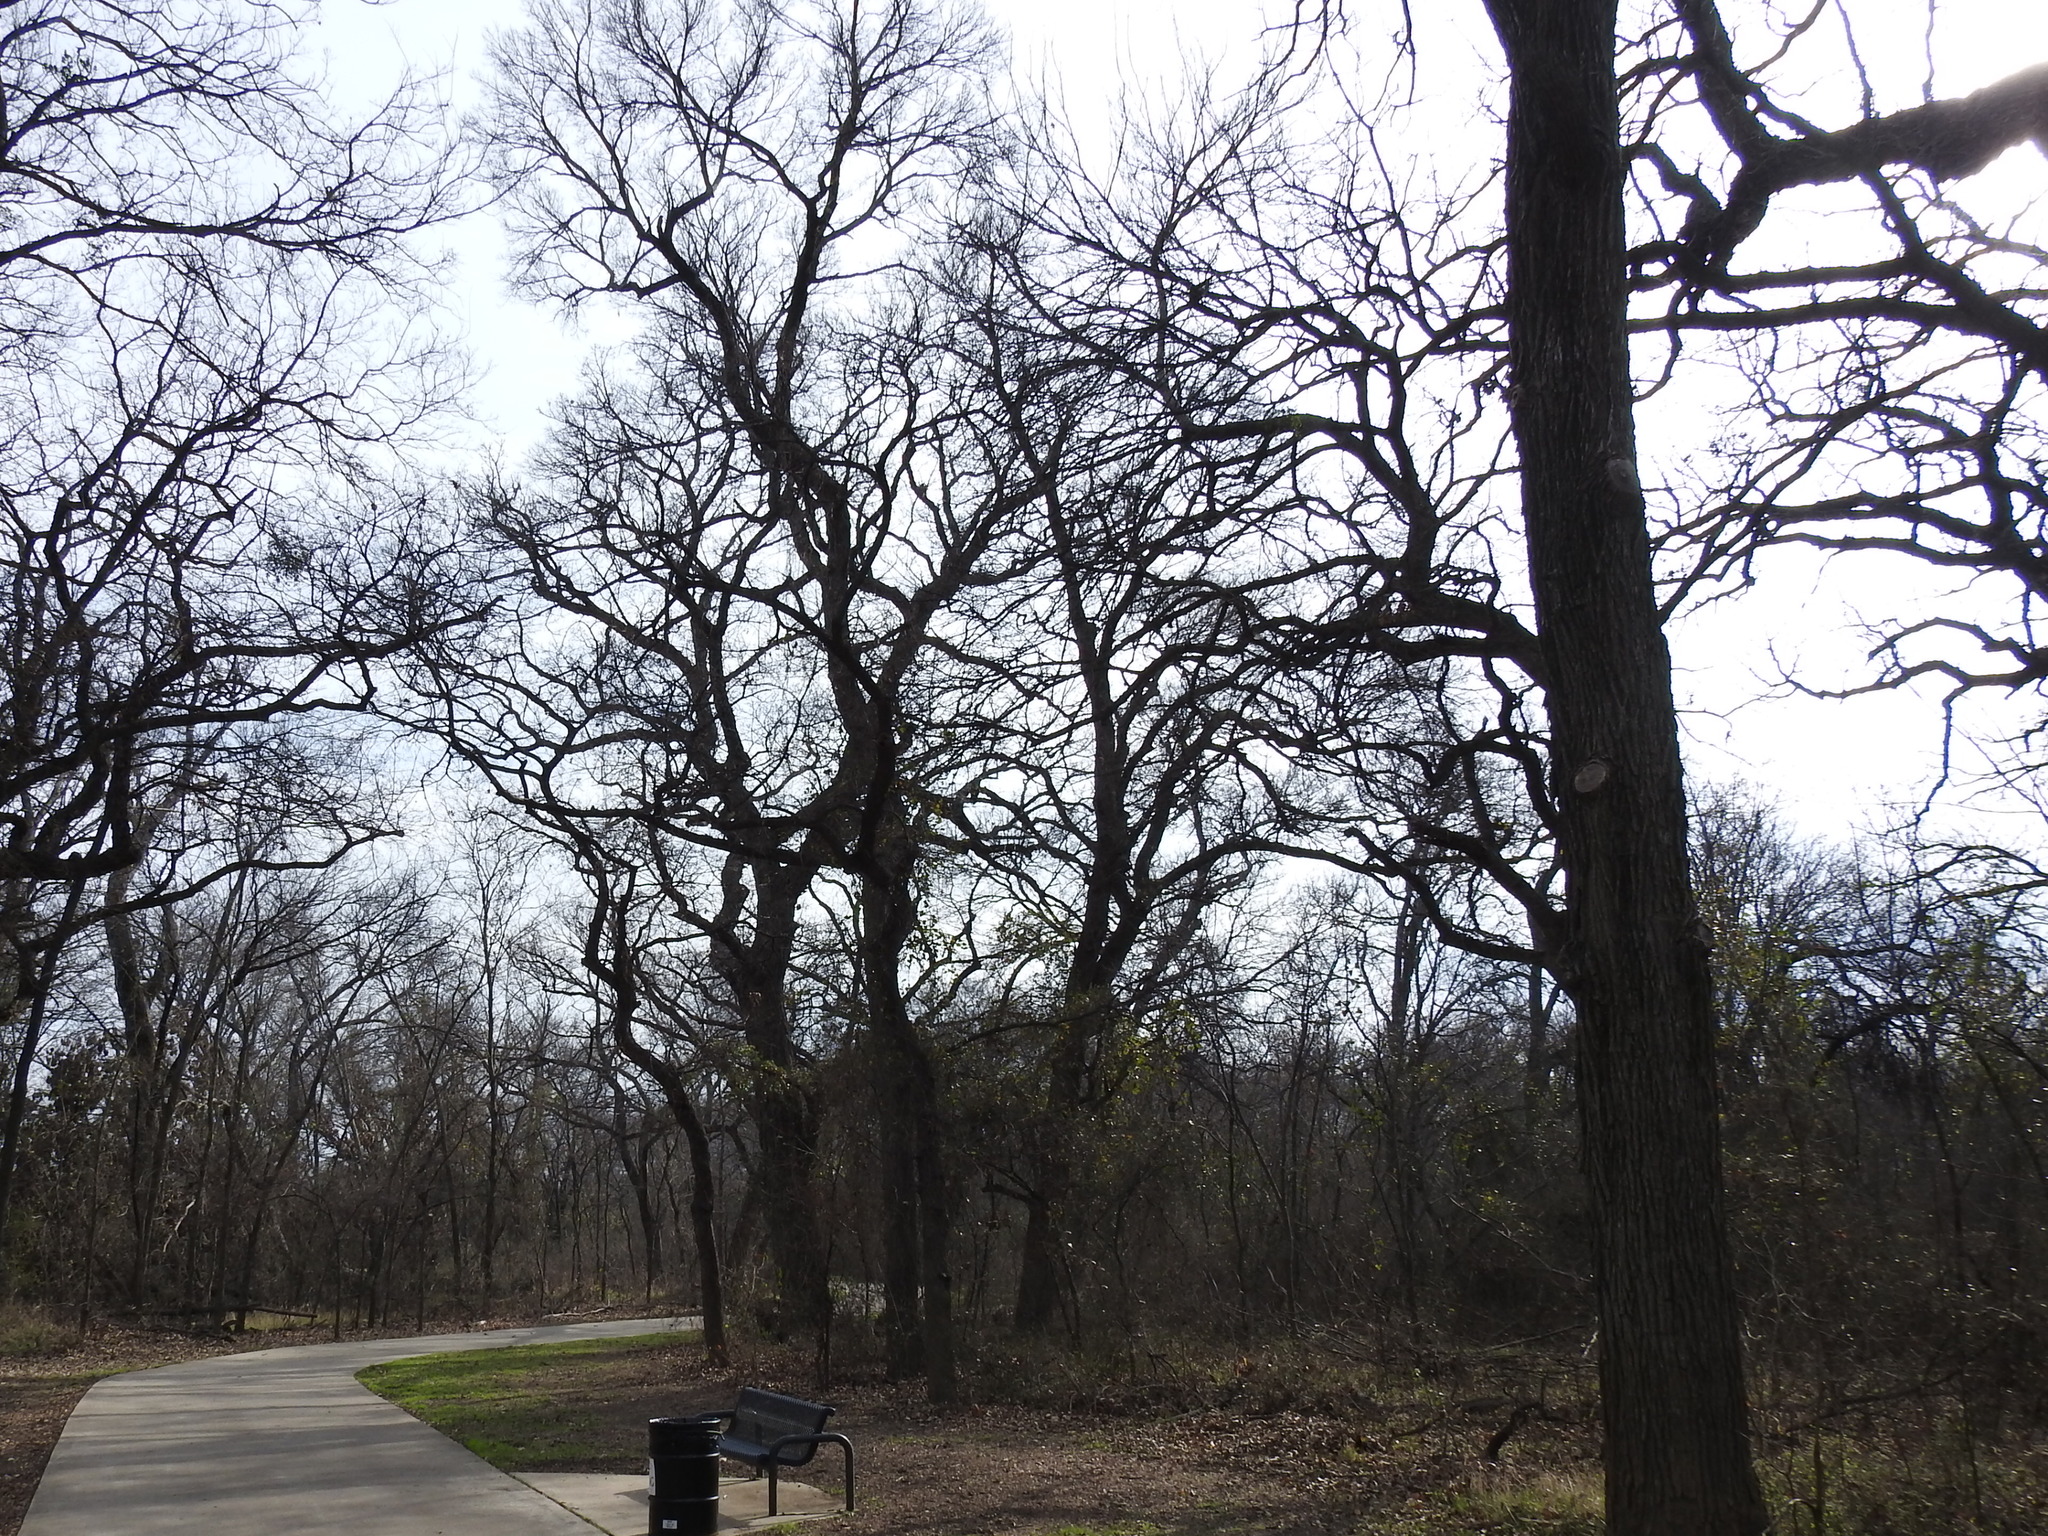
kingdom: Plantae
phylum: Tracheophyta
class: Magnoliopsida
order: Fagales
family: Fagaceae
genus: Quercus
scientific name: Quercus macrocarpa
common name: Bur oak
